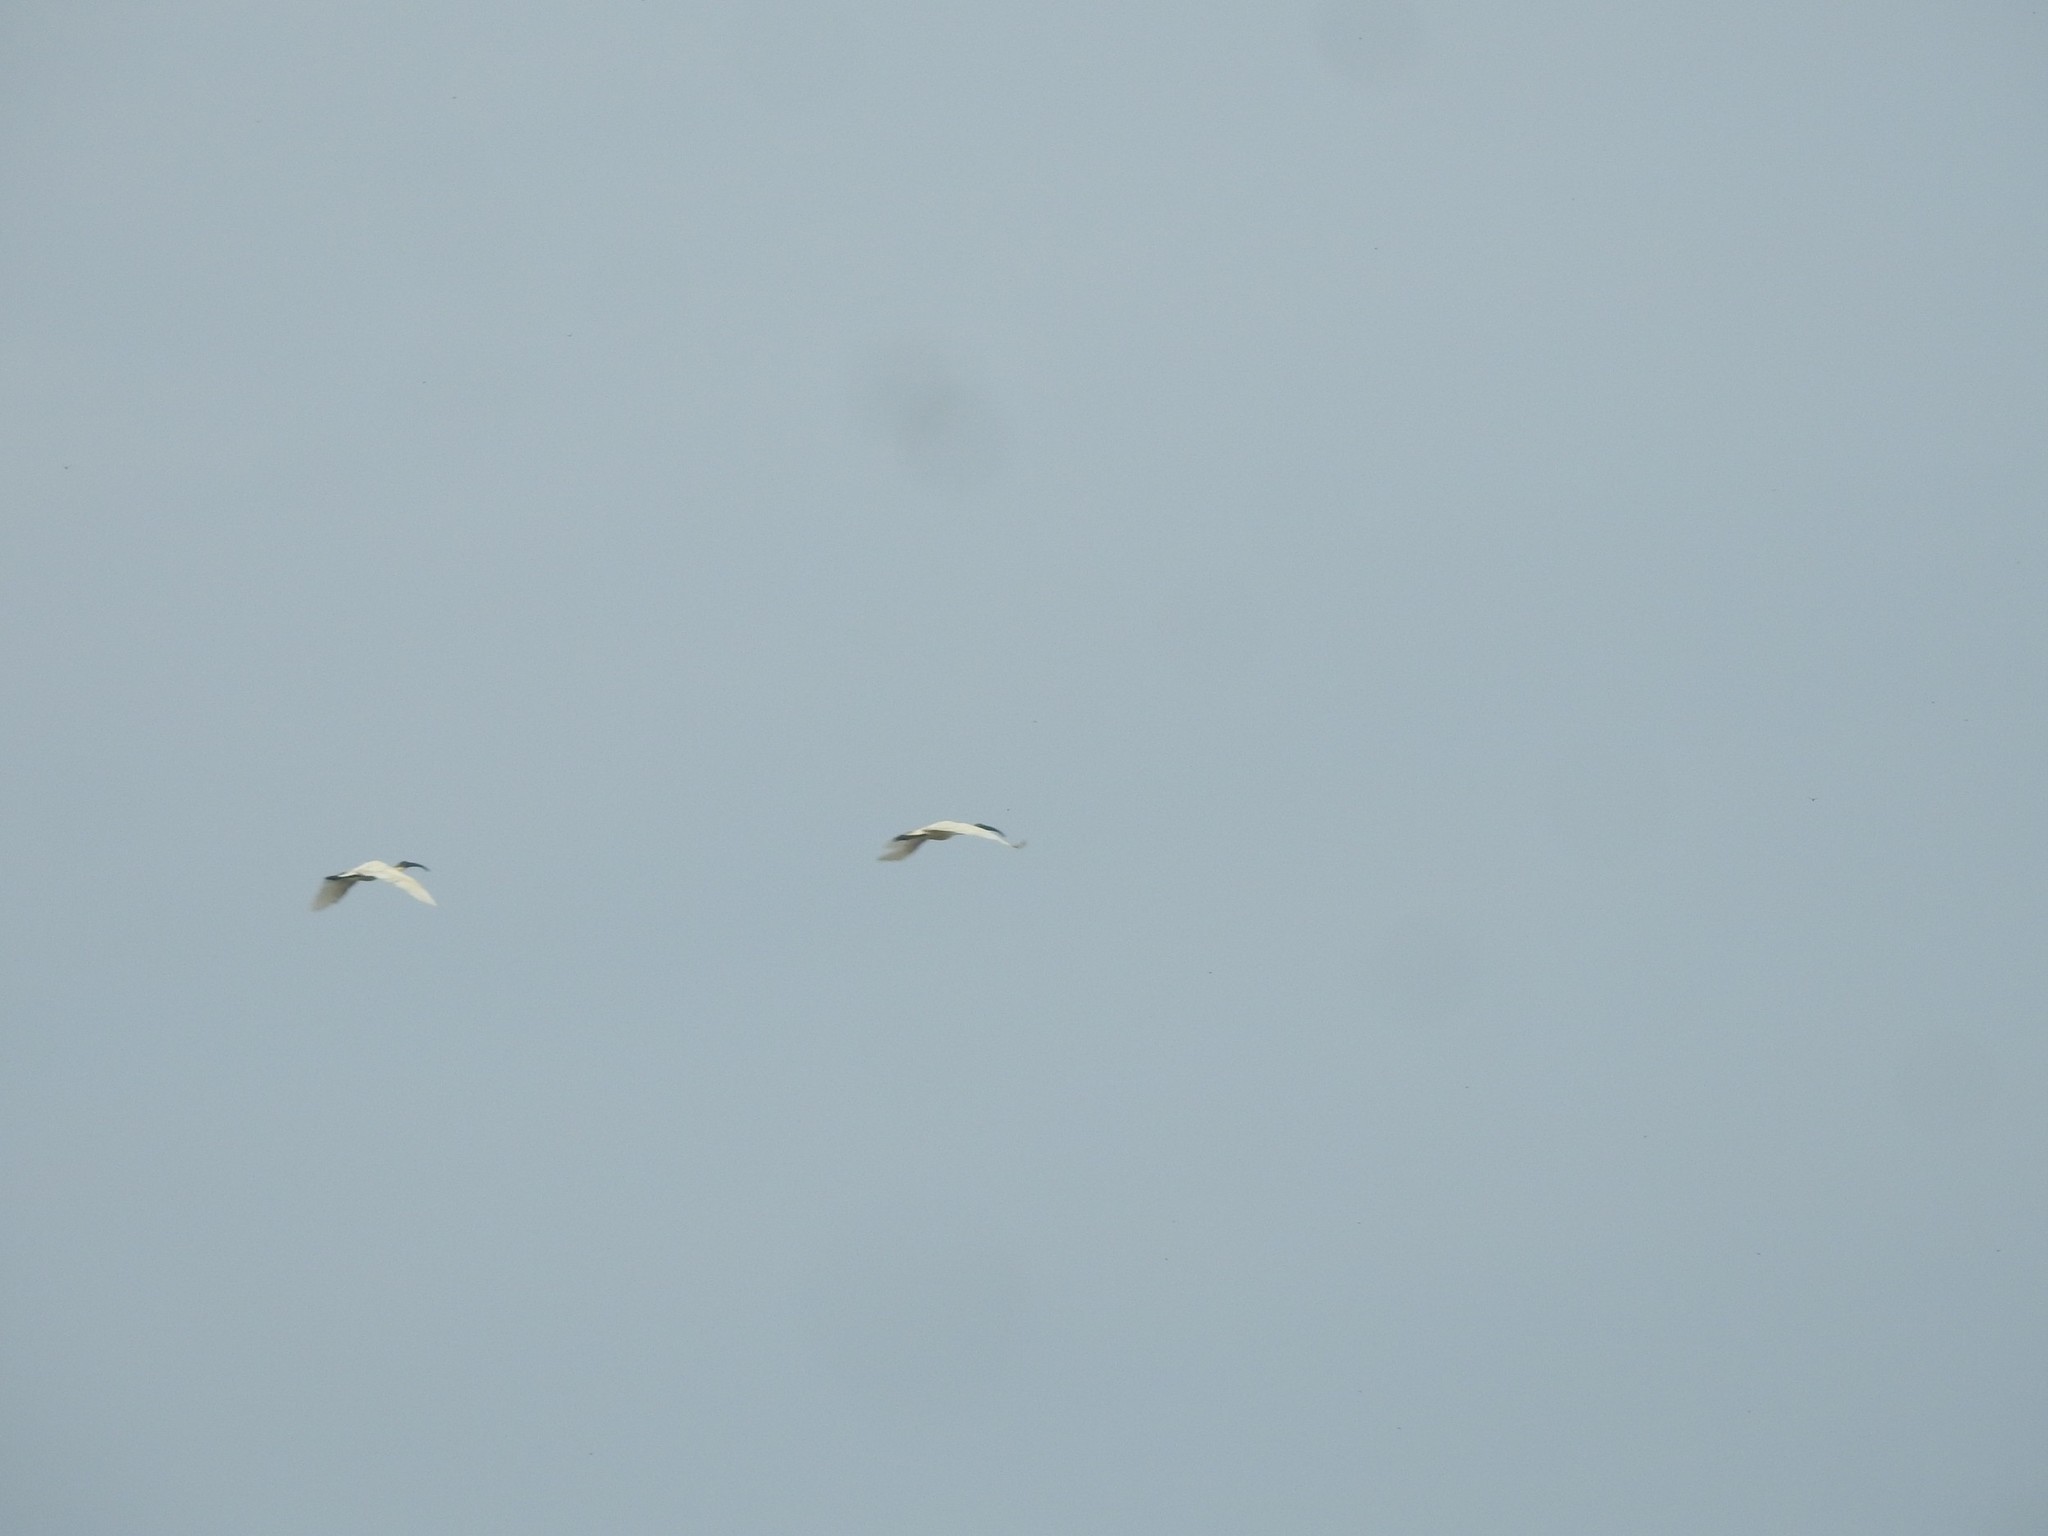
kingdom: Animalia
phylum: Chordata
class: Aves
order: Pelecaniformes
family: Threskiornithidae
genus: Threskiornis
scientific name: Threskiornis melanocephalus
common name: Black-headed ibis
